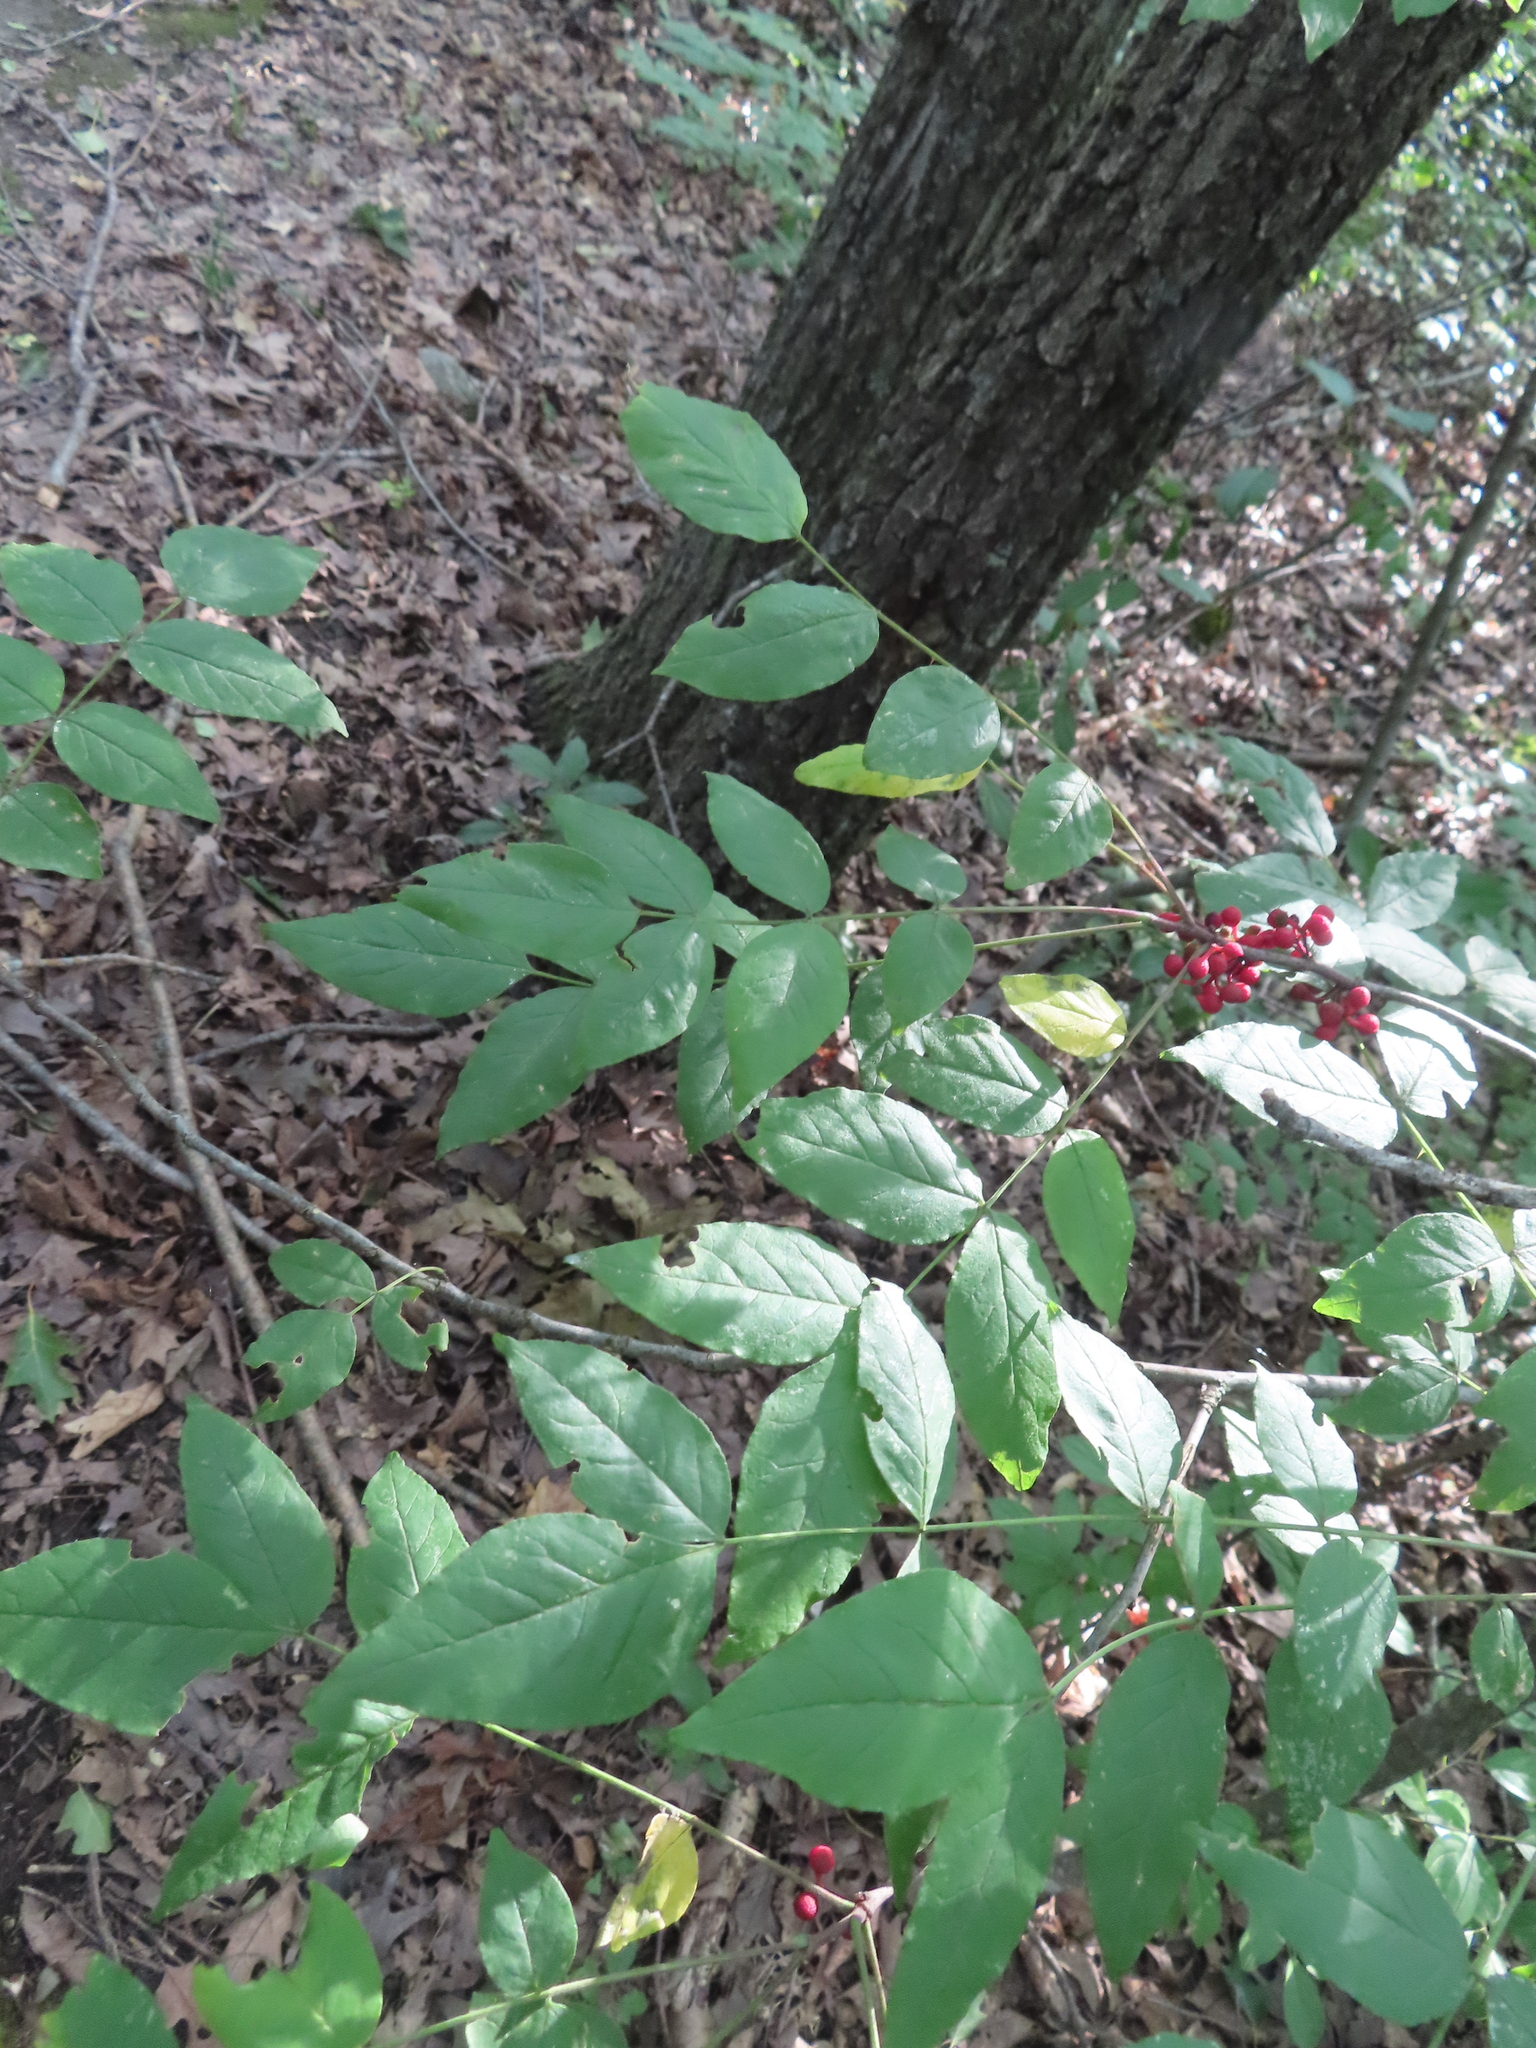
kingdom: Plantae
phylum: Tracheophyta
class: Magnoliopsida
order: Sapindales
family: Rutaceae
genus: Zanthoxylum
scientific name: Zanthoxylum americanum
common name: Northern prickly-ash
